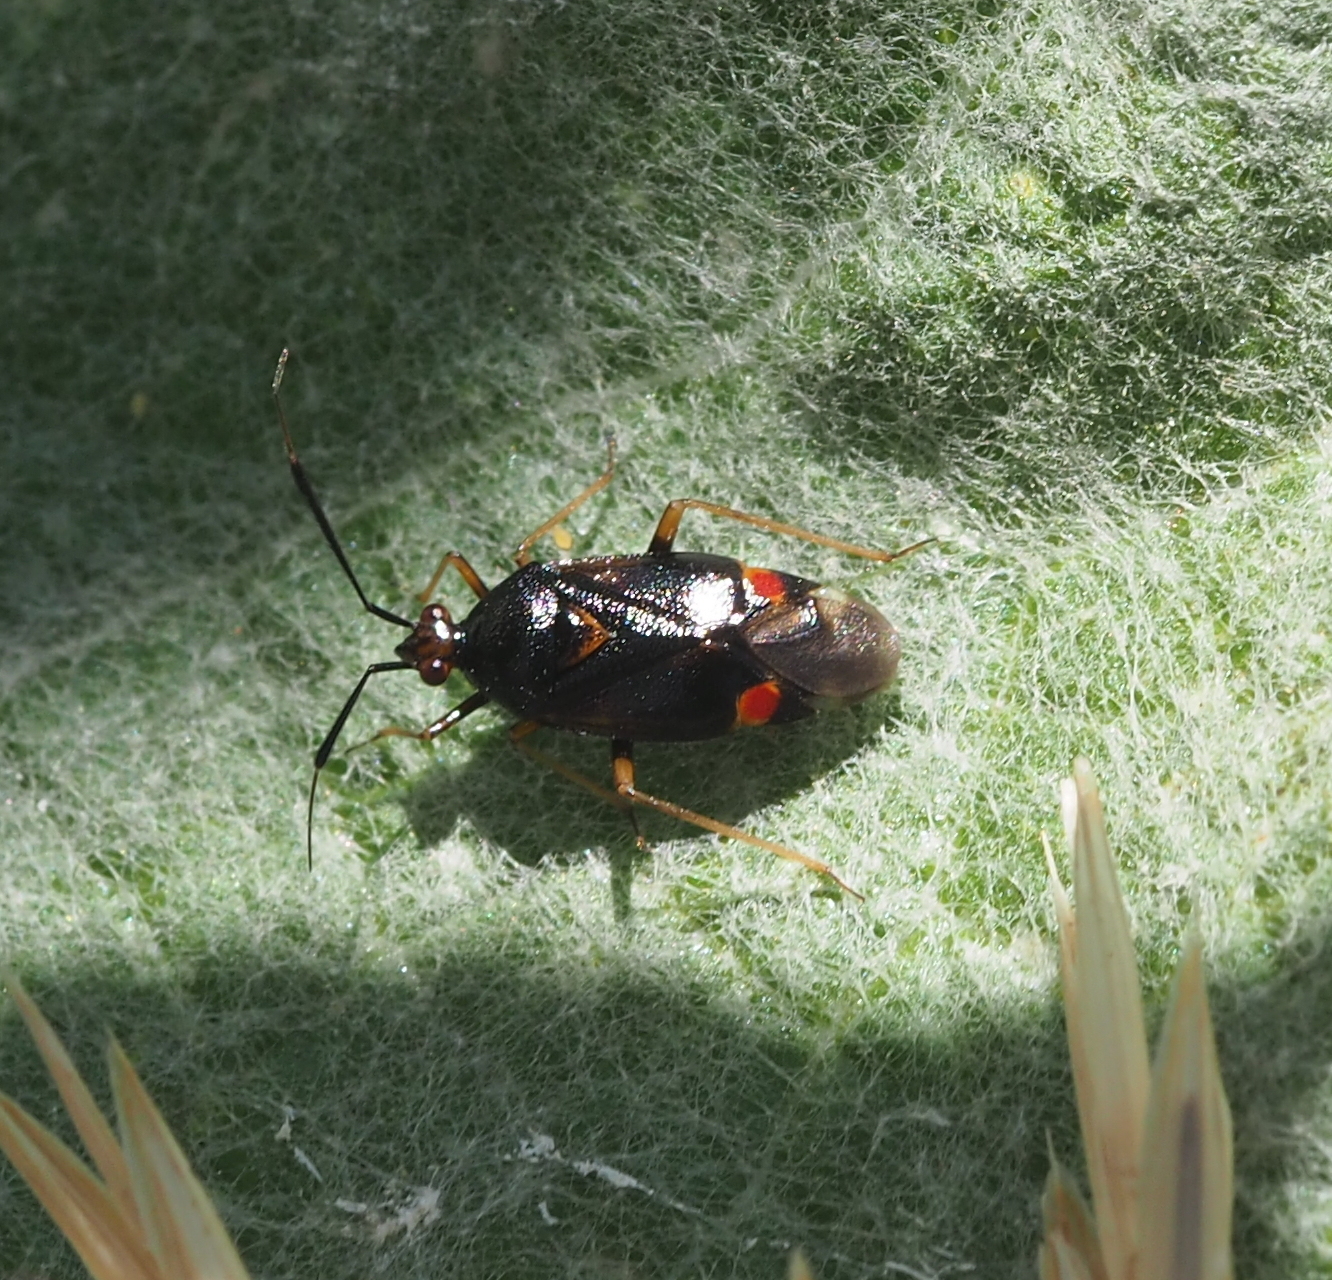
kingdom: Animalia
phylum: Arthropoda
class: Insecta
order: Hemiptera
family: Miridae
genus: Deraeocoris
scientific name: Deraeocoris ruber
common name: Plant bug
